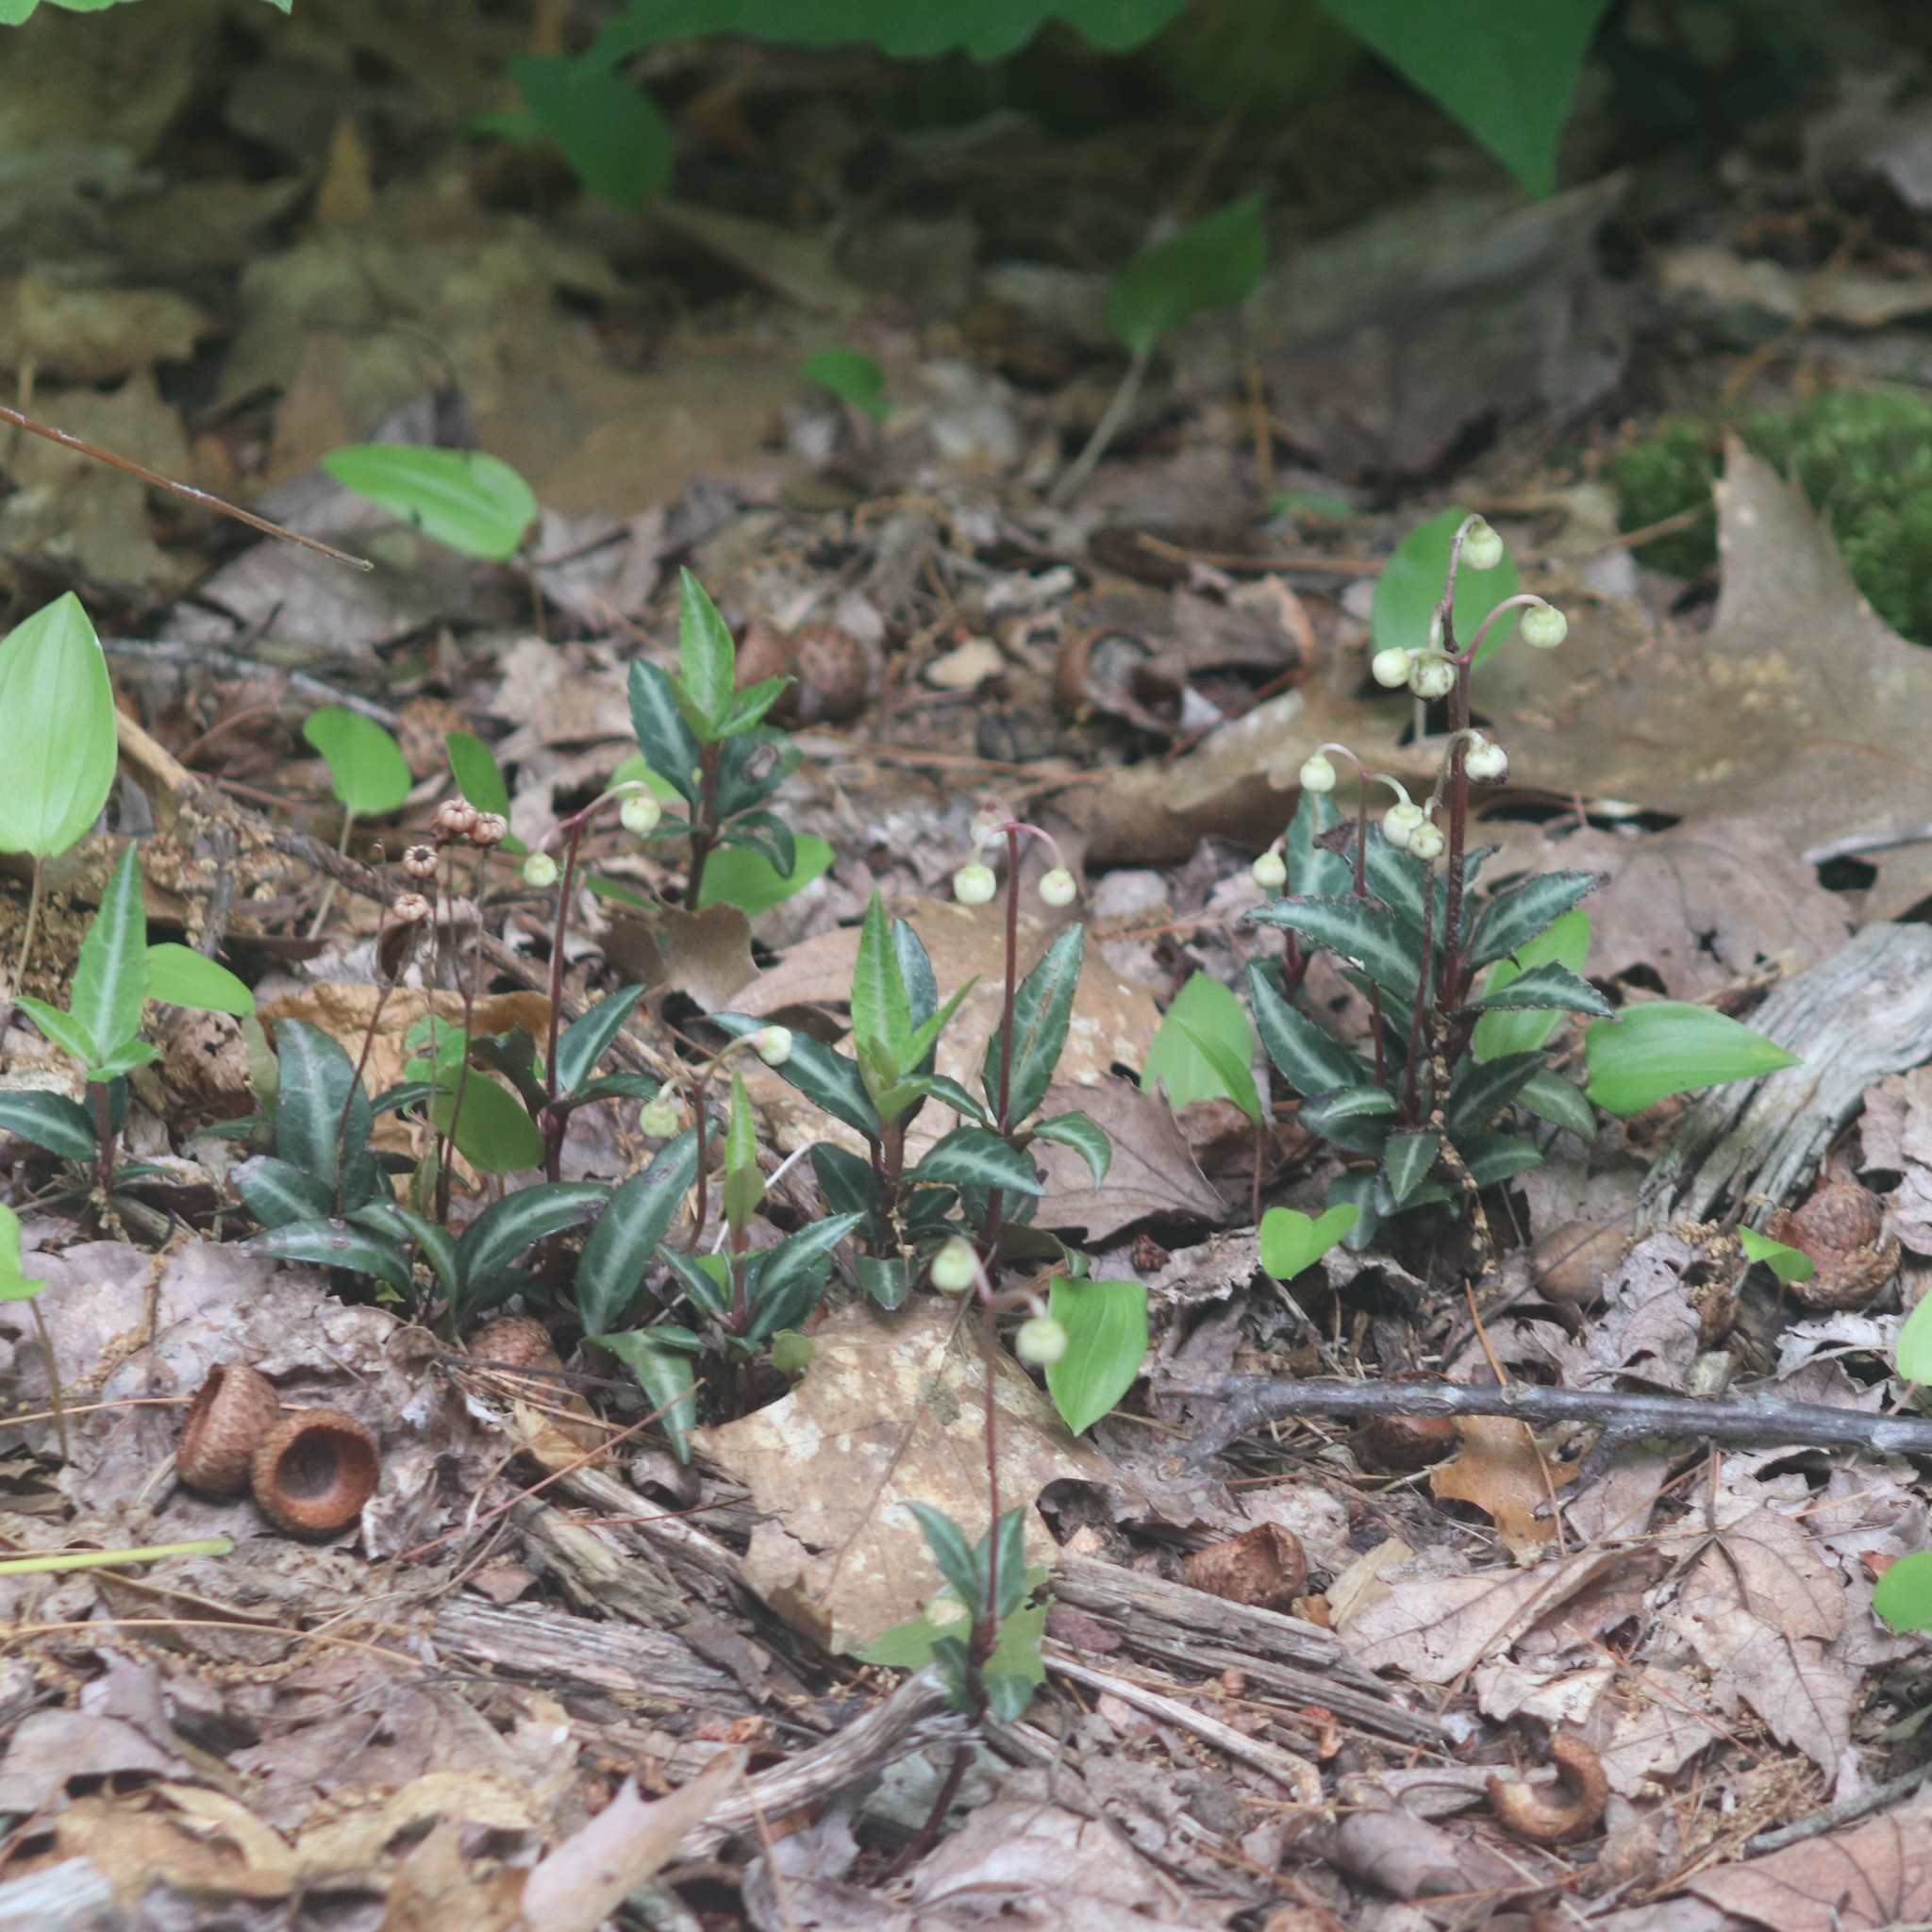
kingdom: Plantae
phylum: Tracheophyta
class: Magnoliopsida
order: Ericales
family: Ericaceae
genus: Chimaphila
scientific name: Chimaphila maculata
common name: Spotted pipsissewa
